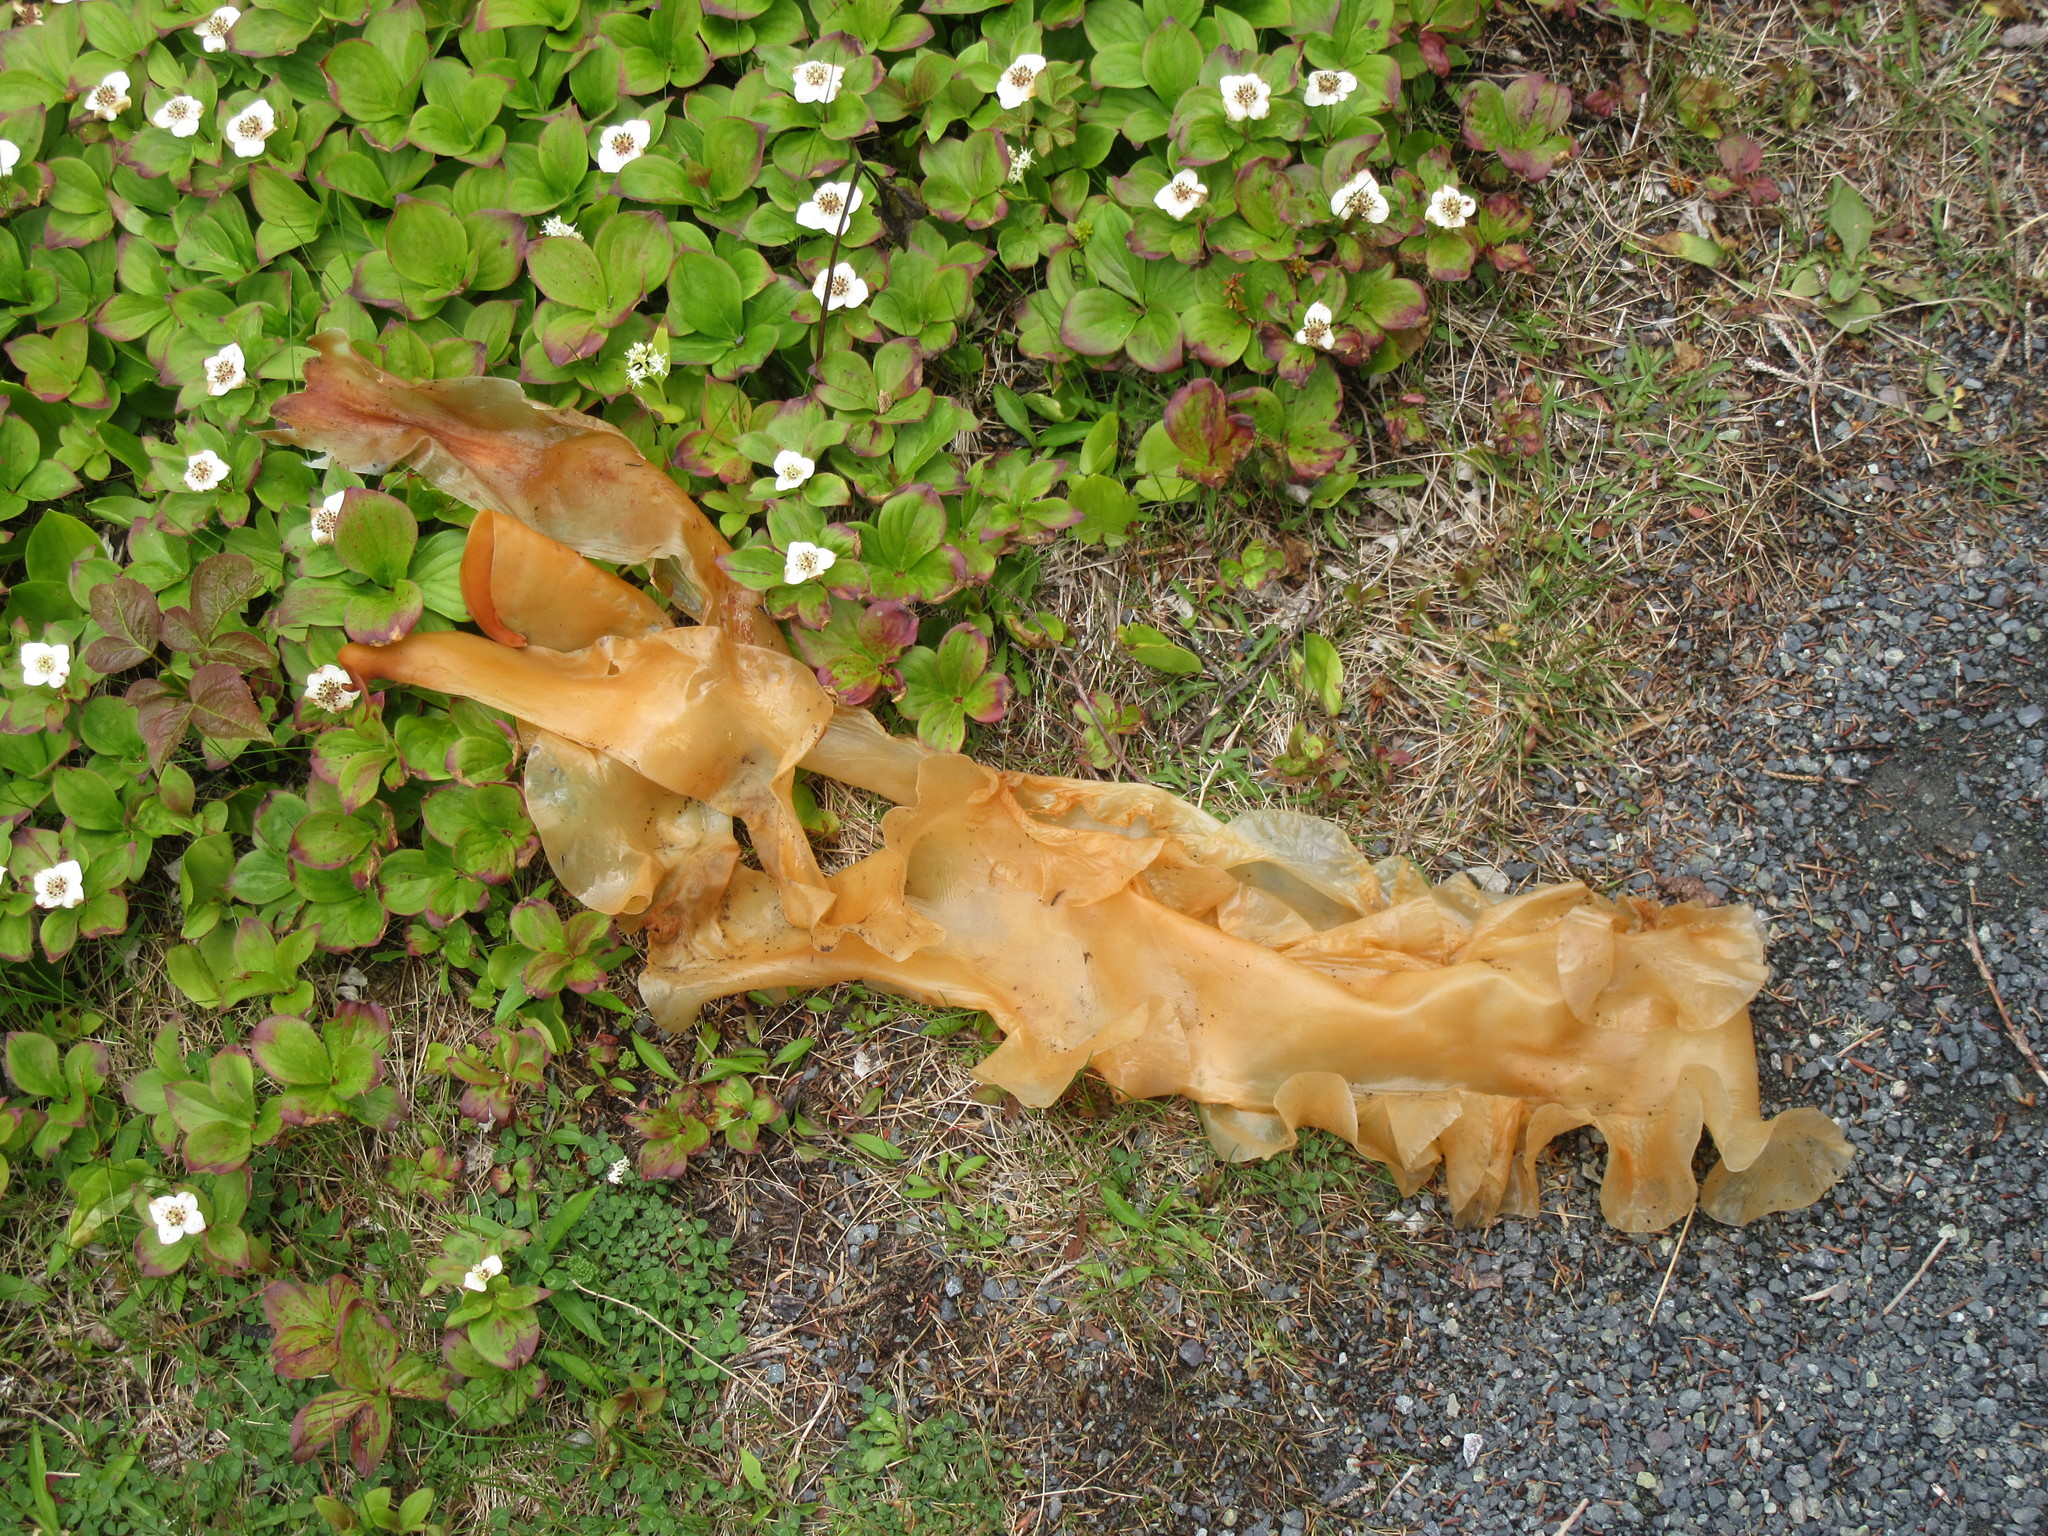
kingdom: Chromista
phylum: Ochrophyta
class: Phaeophyceae
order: Laminariales
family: Laminariaceae
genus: Saccharina
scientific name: Saccharina latissima
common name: Poor man's weather glass
